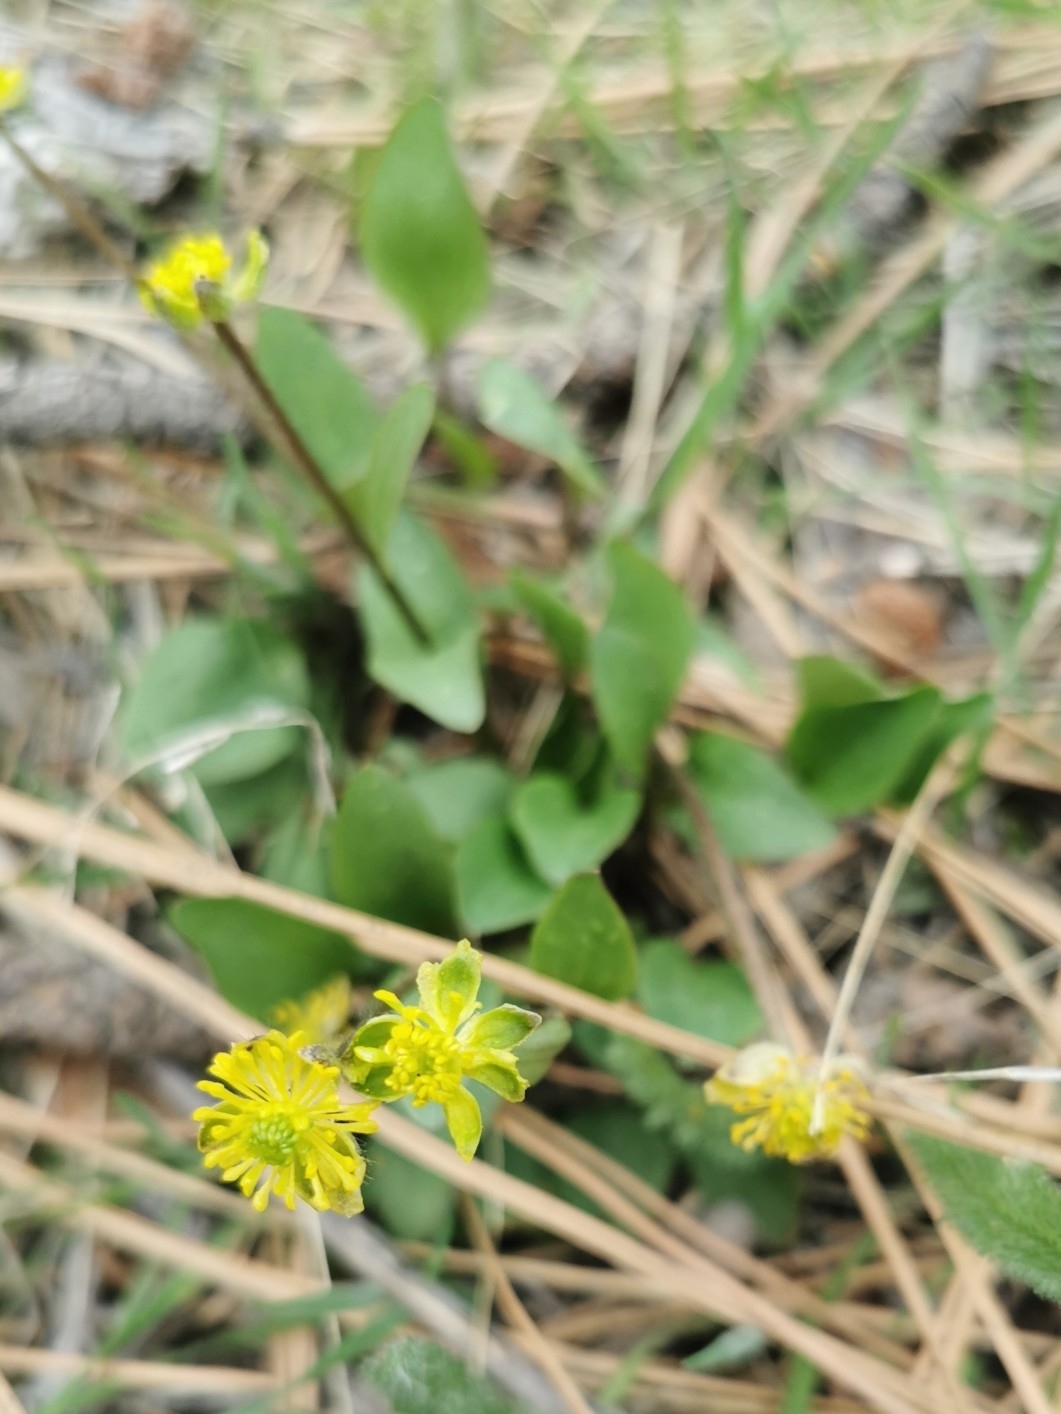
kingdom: Plantae
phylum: Tracheophyta
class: Magnoliopsida
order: Ranunculales
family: Ranunculaceae
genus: Ranunculus
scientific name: Ranunculus glaberrimus
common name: Sagebrush buttercup
